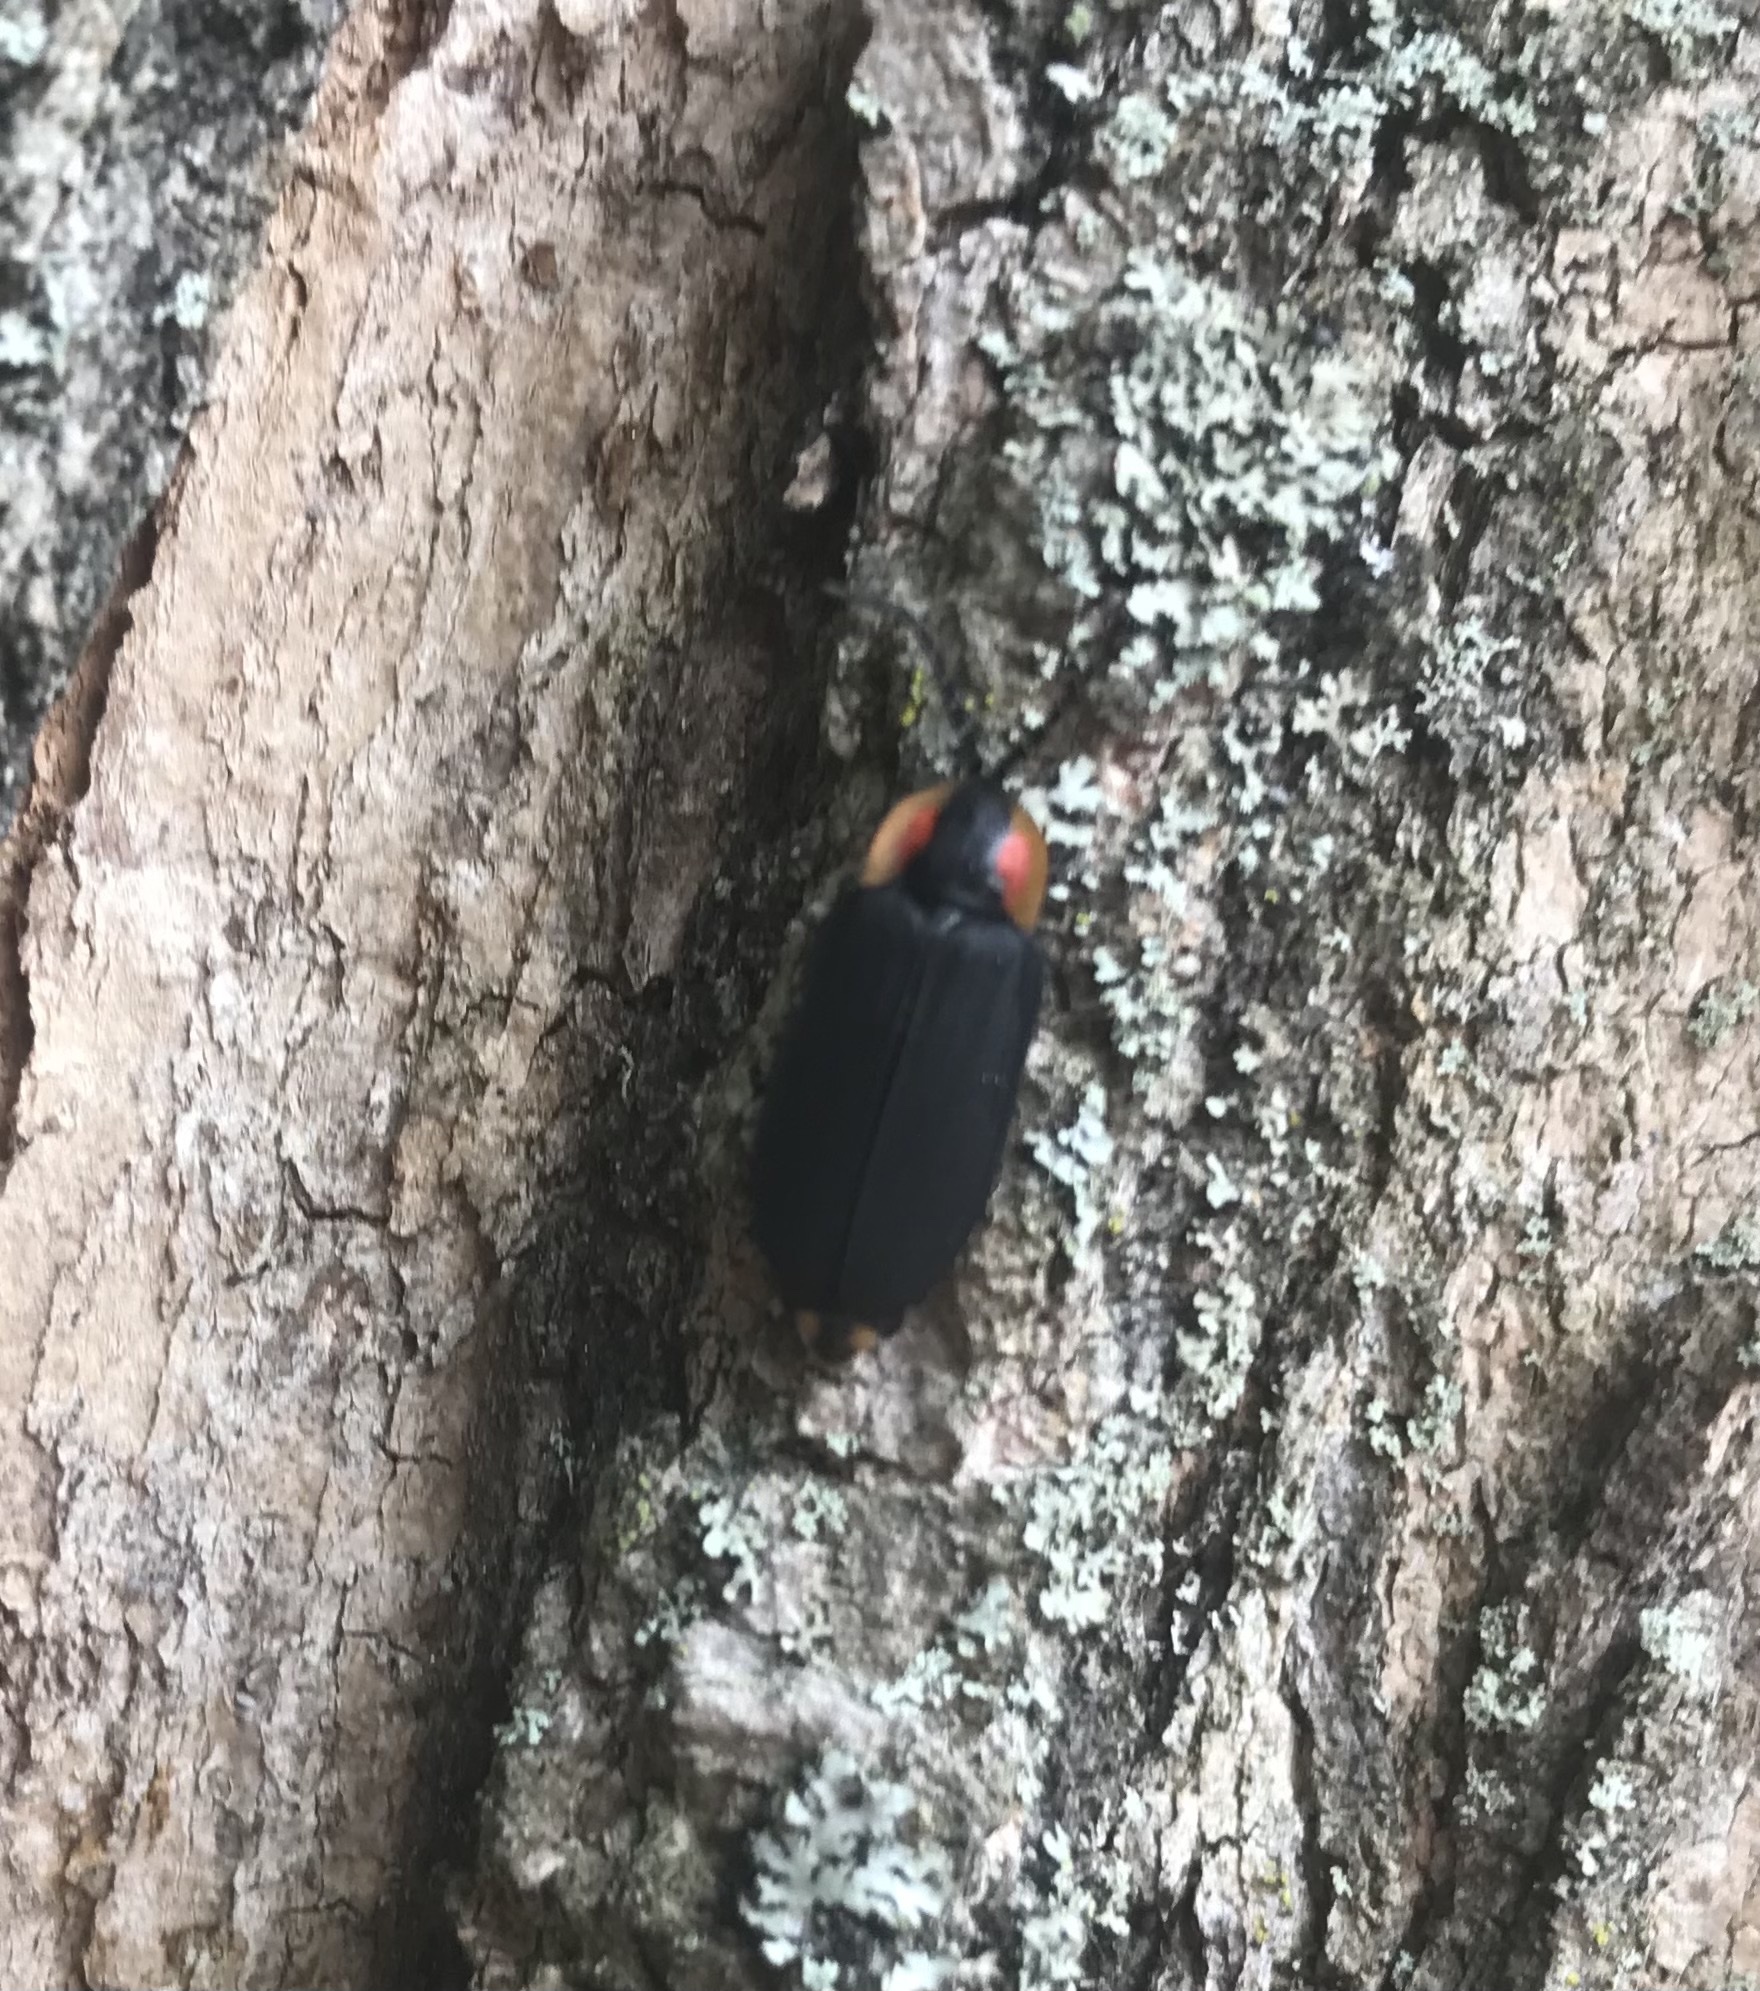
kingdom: Animalia
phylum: Arthropoda
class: Insecta
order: Coleoptera
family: Lampyridae
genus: Lucidota
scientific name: Lucidota atra
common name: Black firefly
